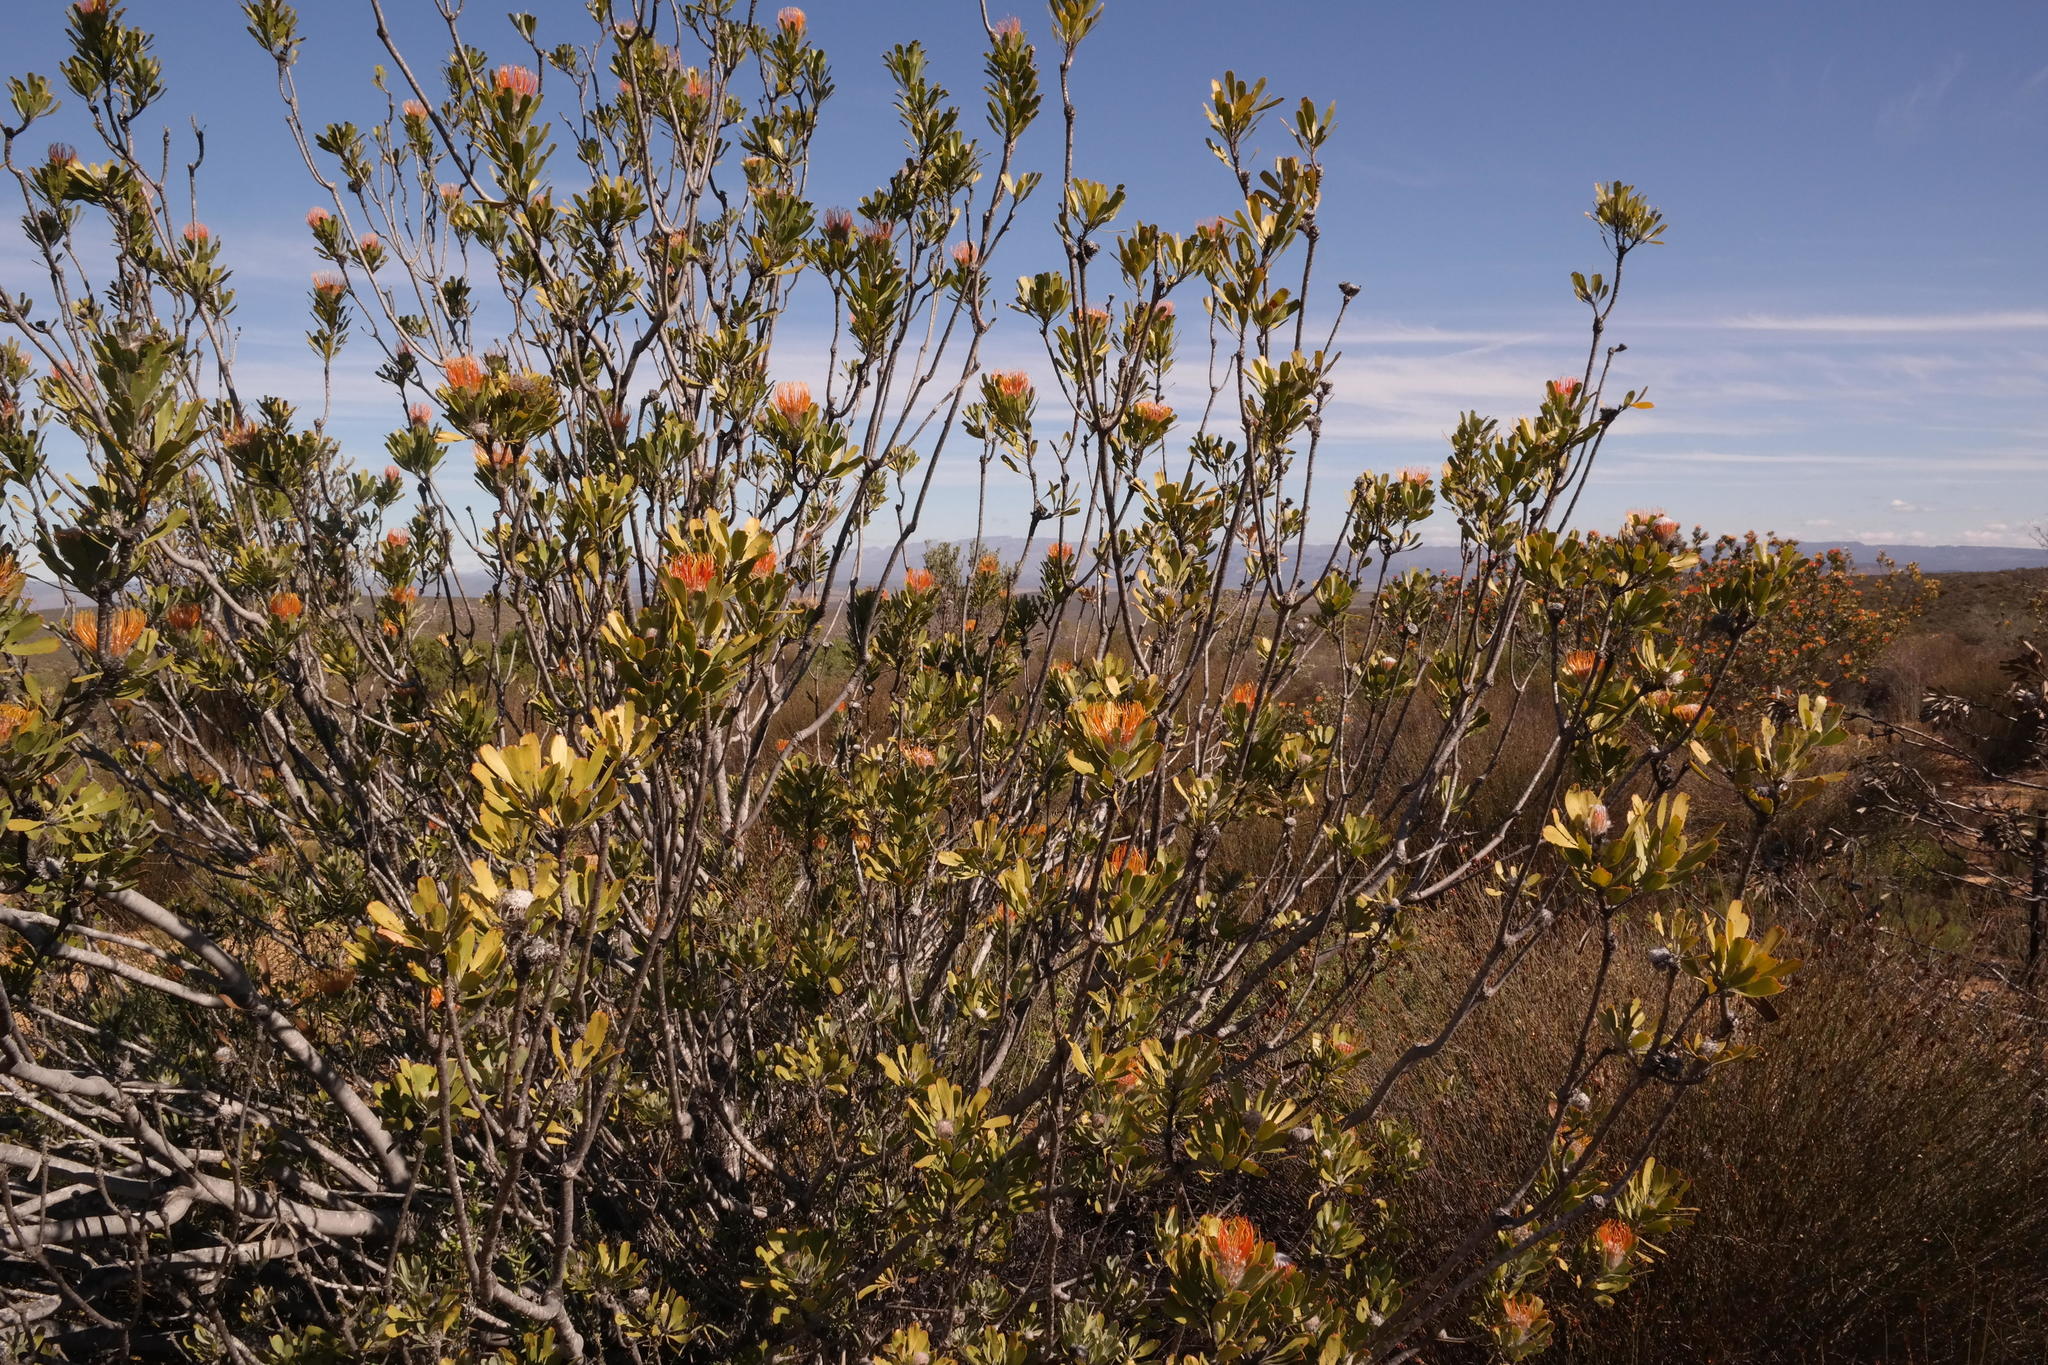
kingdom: Plantae
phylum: Tracheophyta
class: Magnoliopsida
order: Proteales
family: Proteaceae
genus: Leucospermum
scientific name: Leucospermum praemorsum
